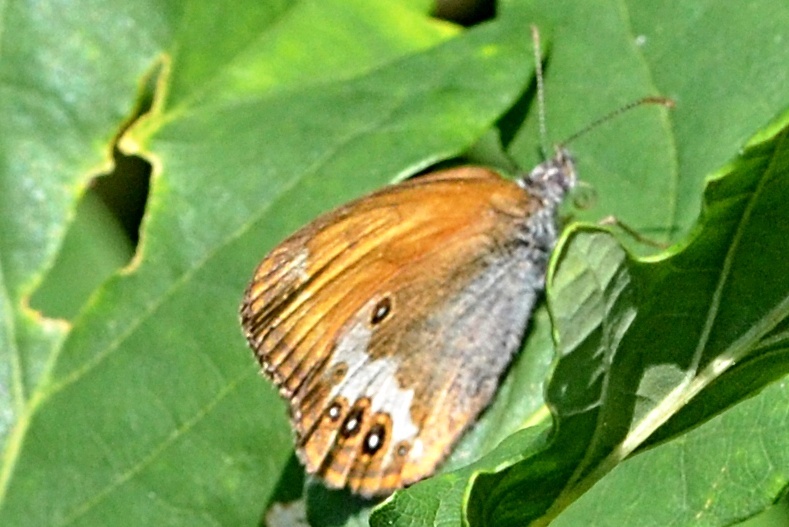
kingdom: Animalia
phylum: Arthropoda
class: Insecta
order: Lepidoptera
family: Nymphalidae
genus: Coenonympha
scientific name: Coenonympha arcania
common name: Pearly heath
